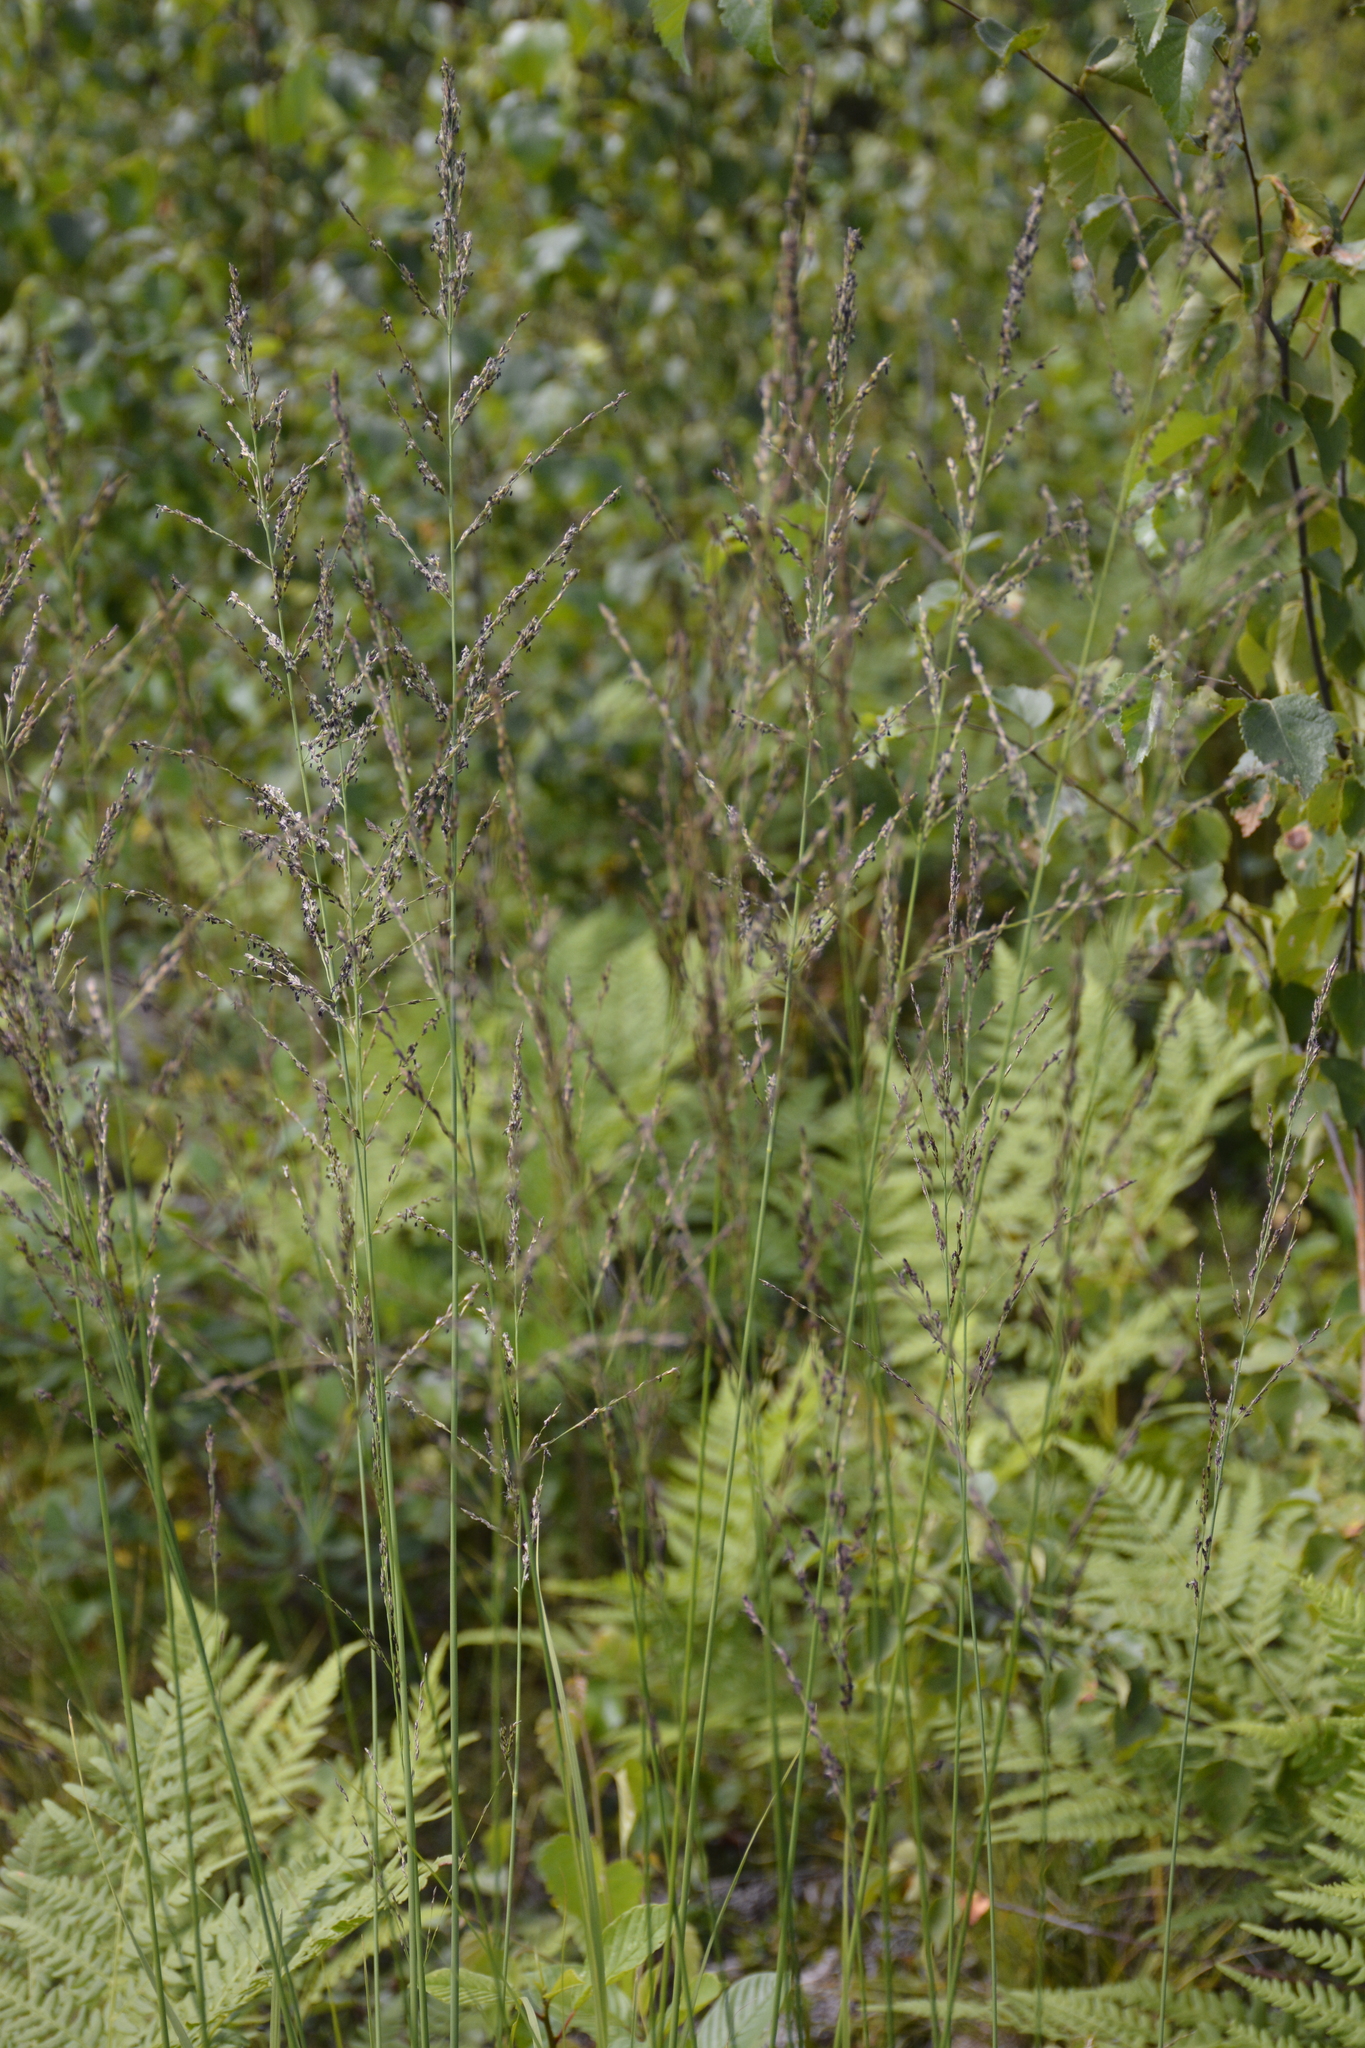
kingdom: Plantae
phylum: Tracheophyta
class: Liliopsida
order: Poales
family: Poaceae
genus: Molinia
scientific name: Molinia caerulea
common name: Purple moor-grass
